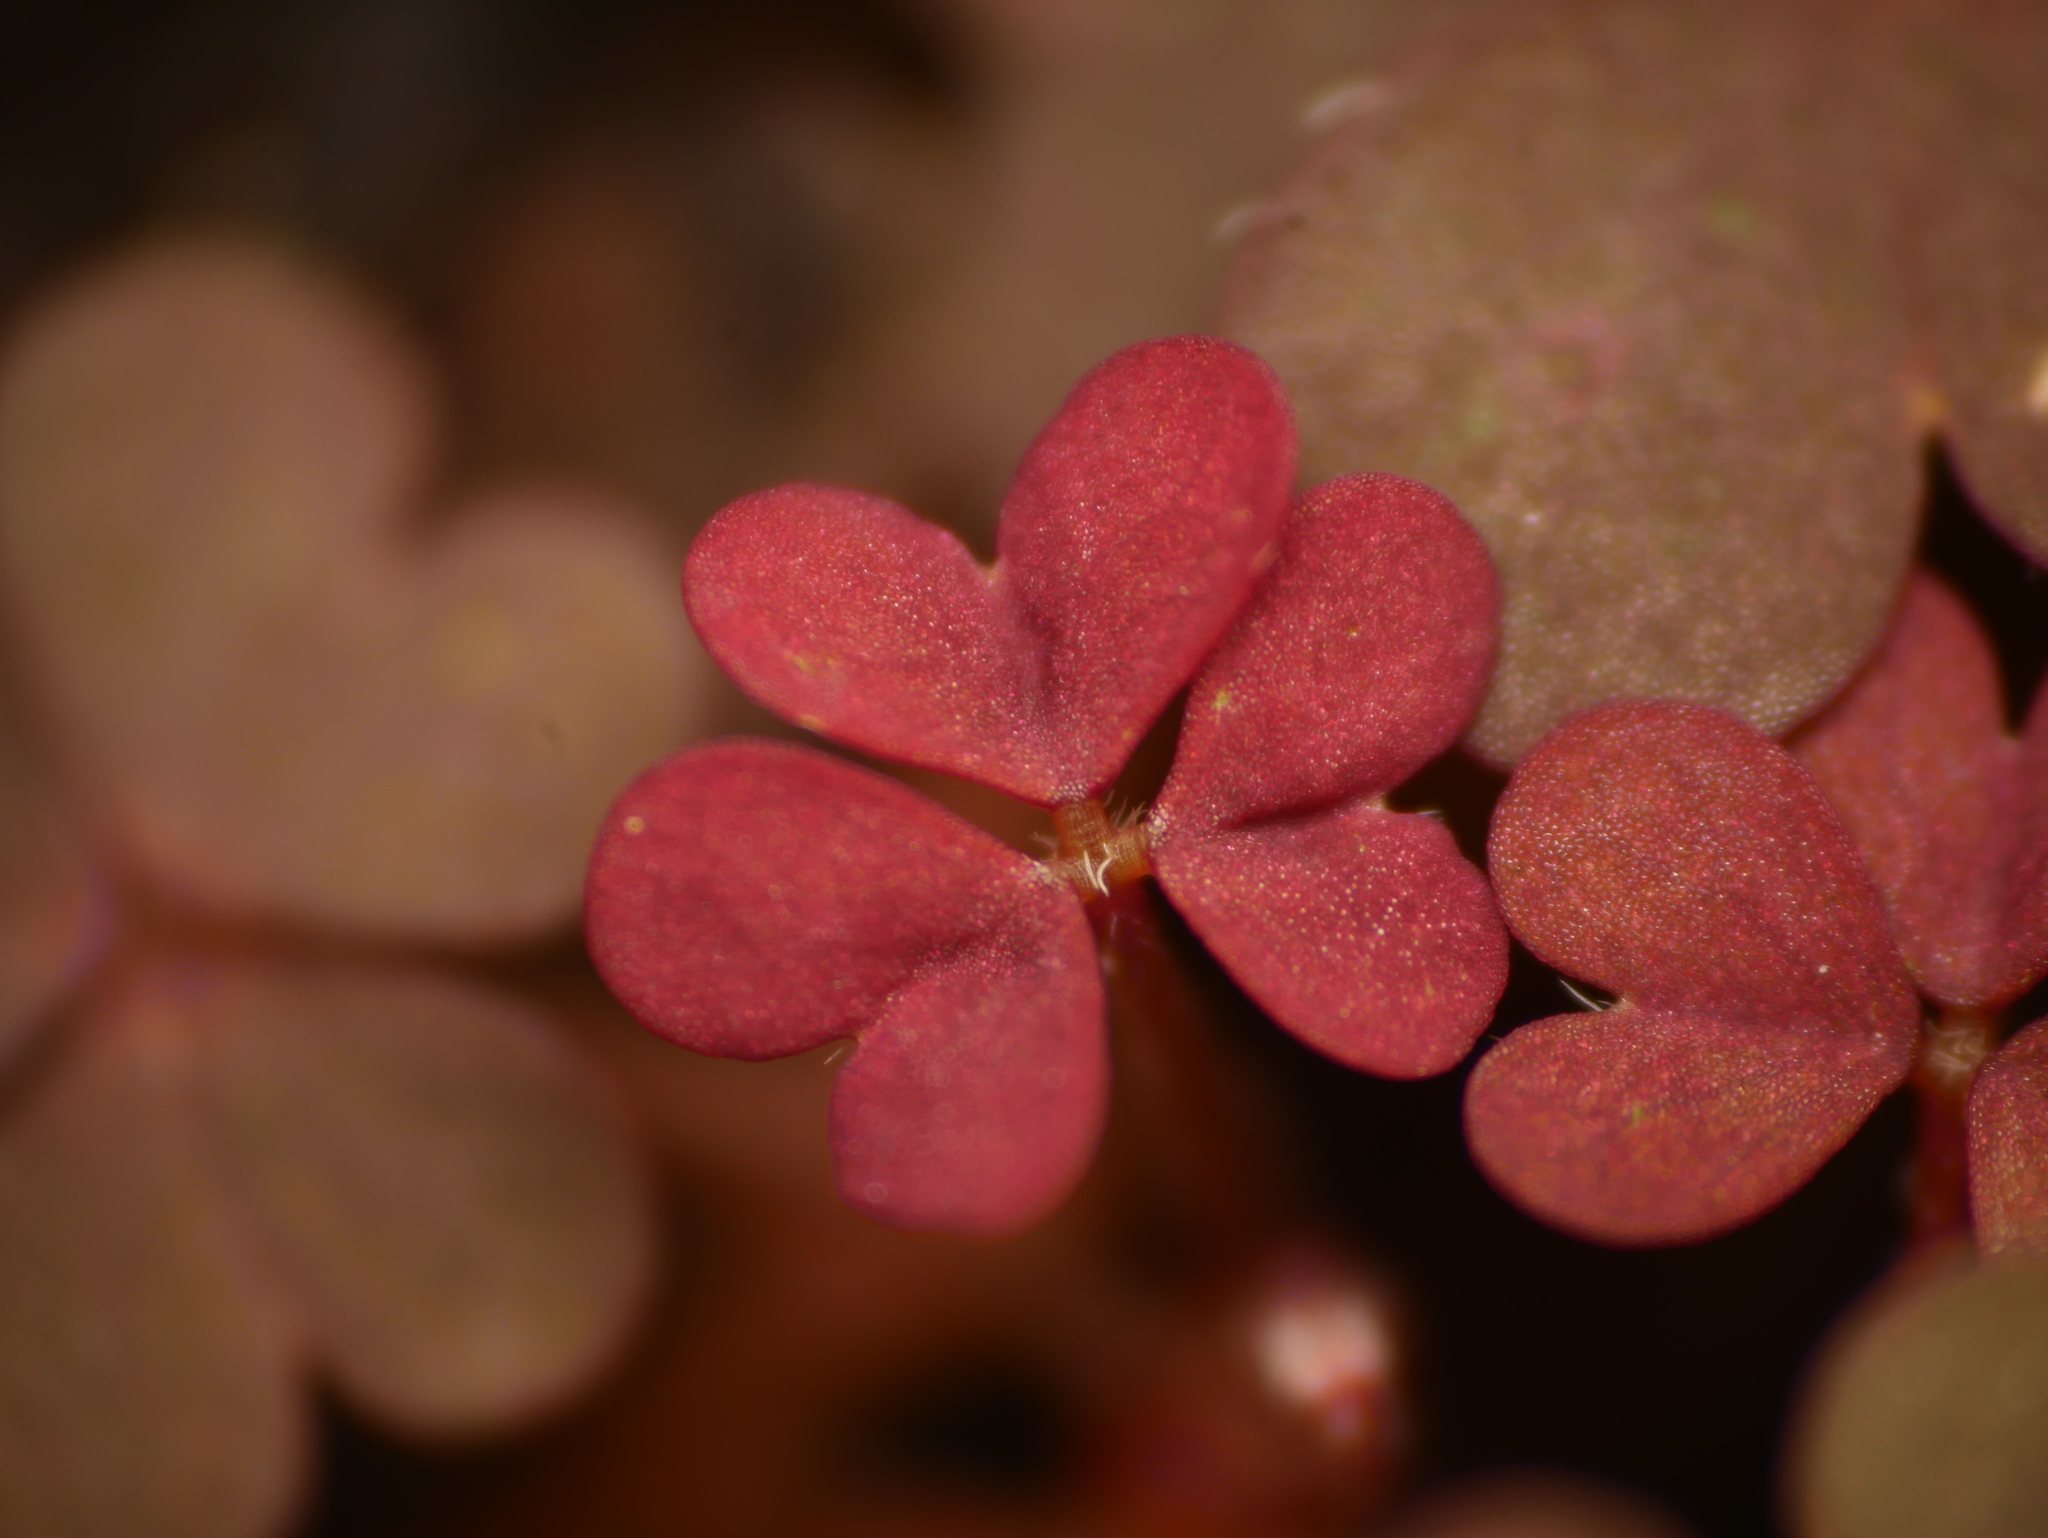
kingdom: Plantae
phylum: Tracheophyta
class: Magnoliopsida
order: Oxalidales
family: Oxalidaceae
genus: Oxalis
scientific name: Oxalis corniculata
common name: Procumbent yellow-sorrel
